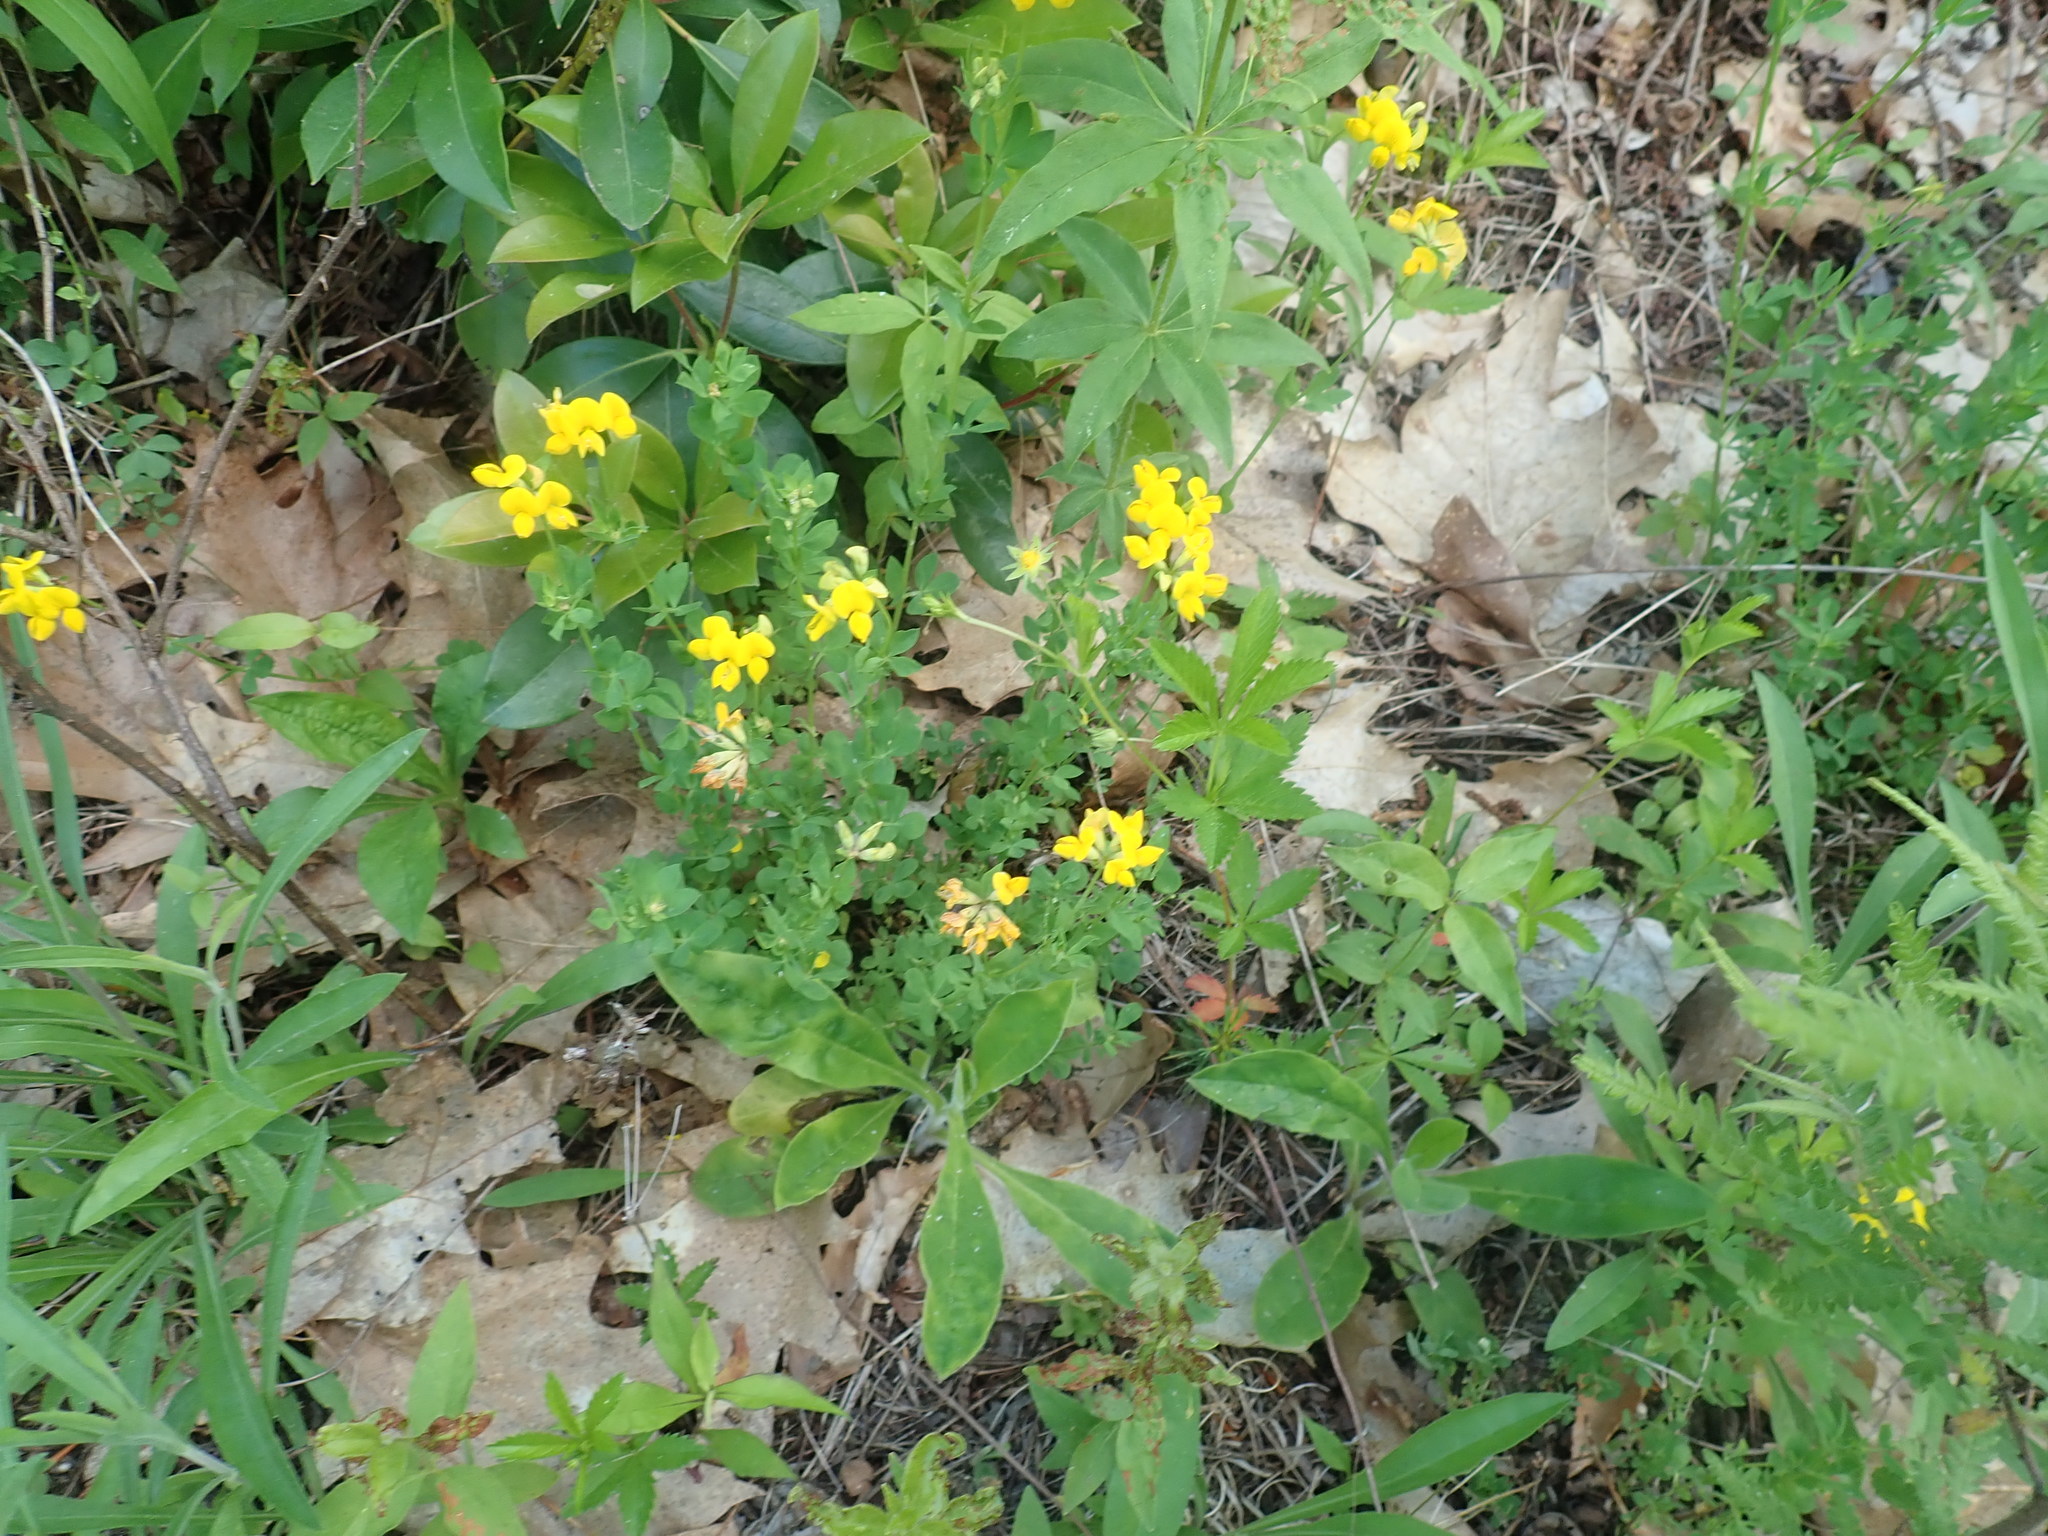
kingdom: Plantae
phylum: Tracheophyta
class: Magnoliopsida
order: Fabales
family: Fabaceae
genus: Lotus
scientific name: Lotus corniculatus
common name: Common bird's-foot-trefoil
